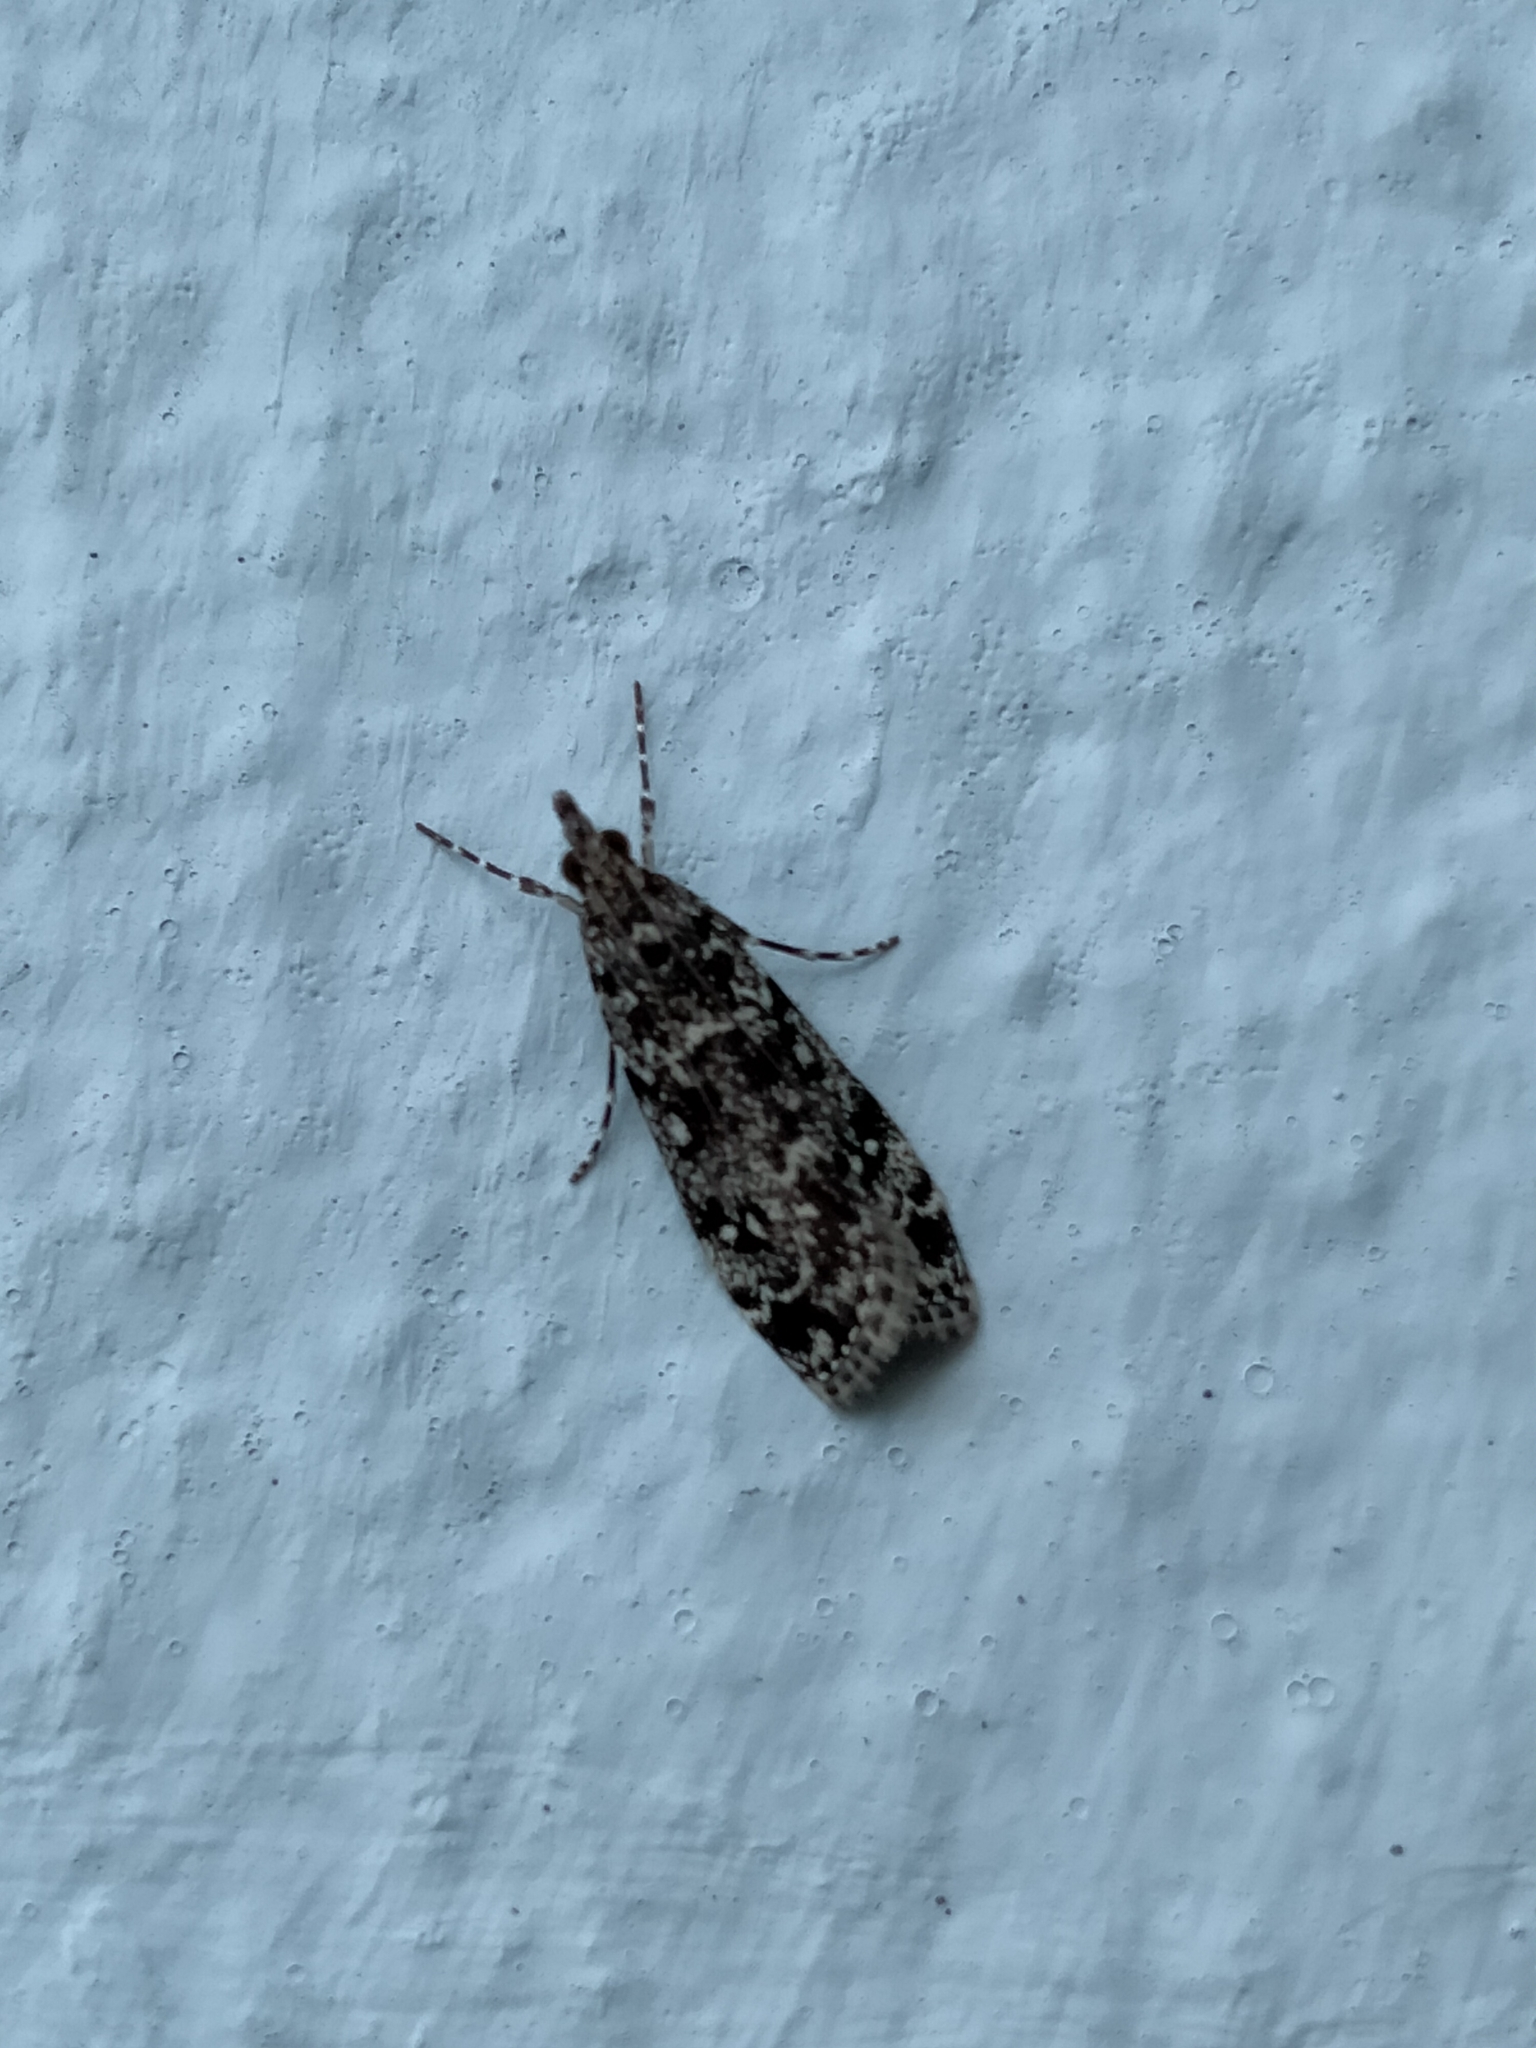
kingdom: Animalia
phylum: Arthropoda
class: Insecta
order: Lepidoptera
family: Crambidae
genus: Eudonia
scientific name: Eudonia philerga
